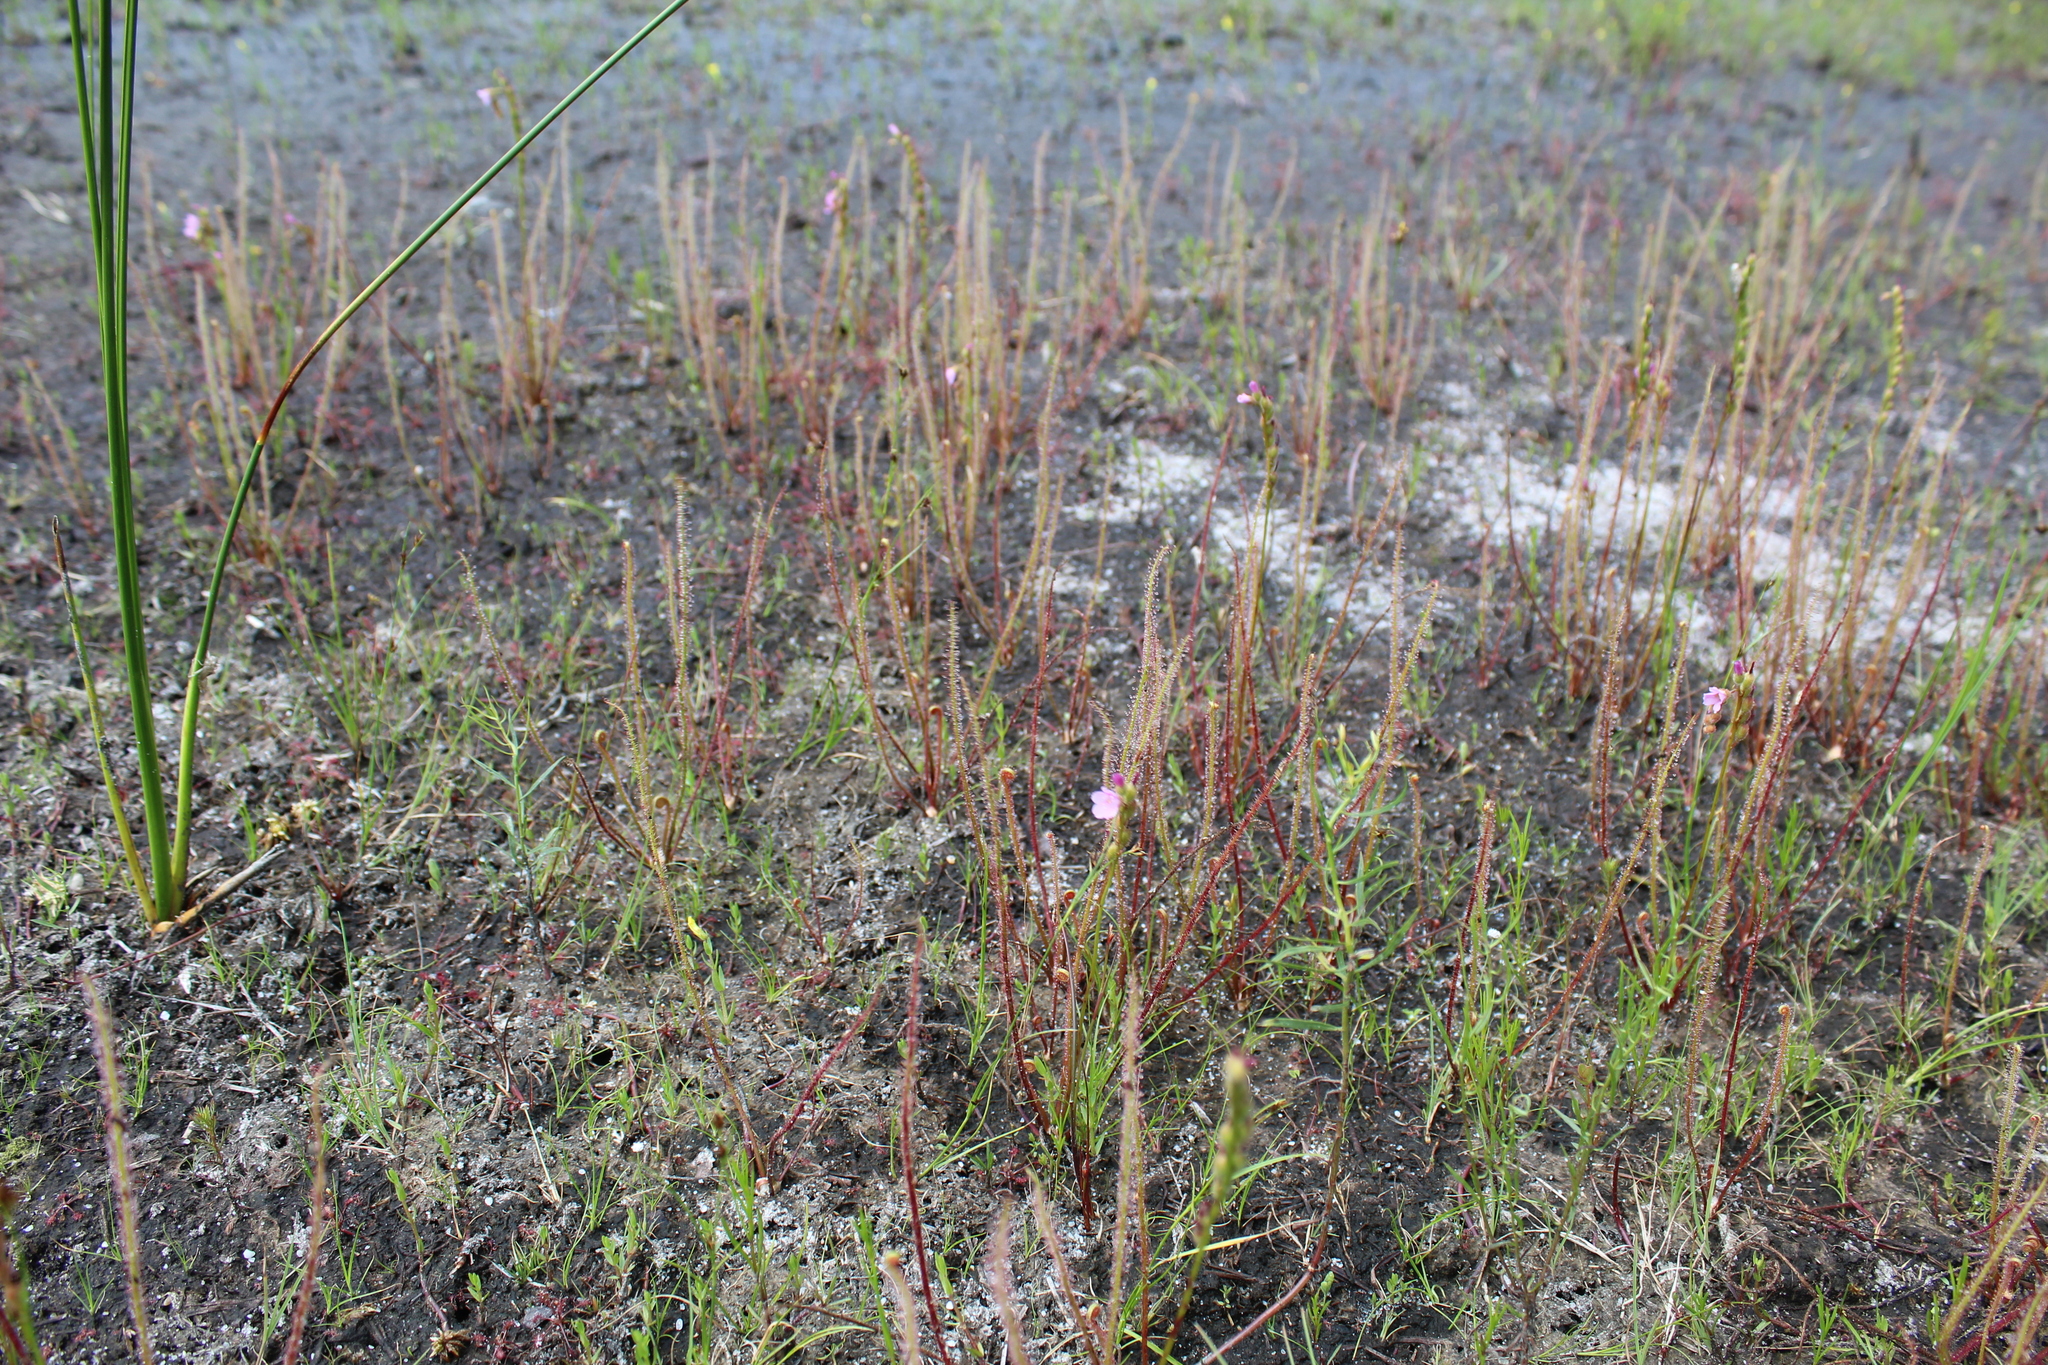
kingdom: Plantae
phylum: Tracheophyta
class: Magnoliopsida
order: Caryophyllales
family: Droseraceae
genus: Drosera
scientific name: Drosera filiformis
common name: Dew-thread
